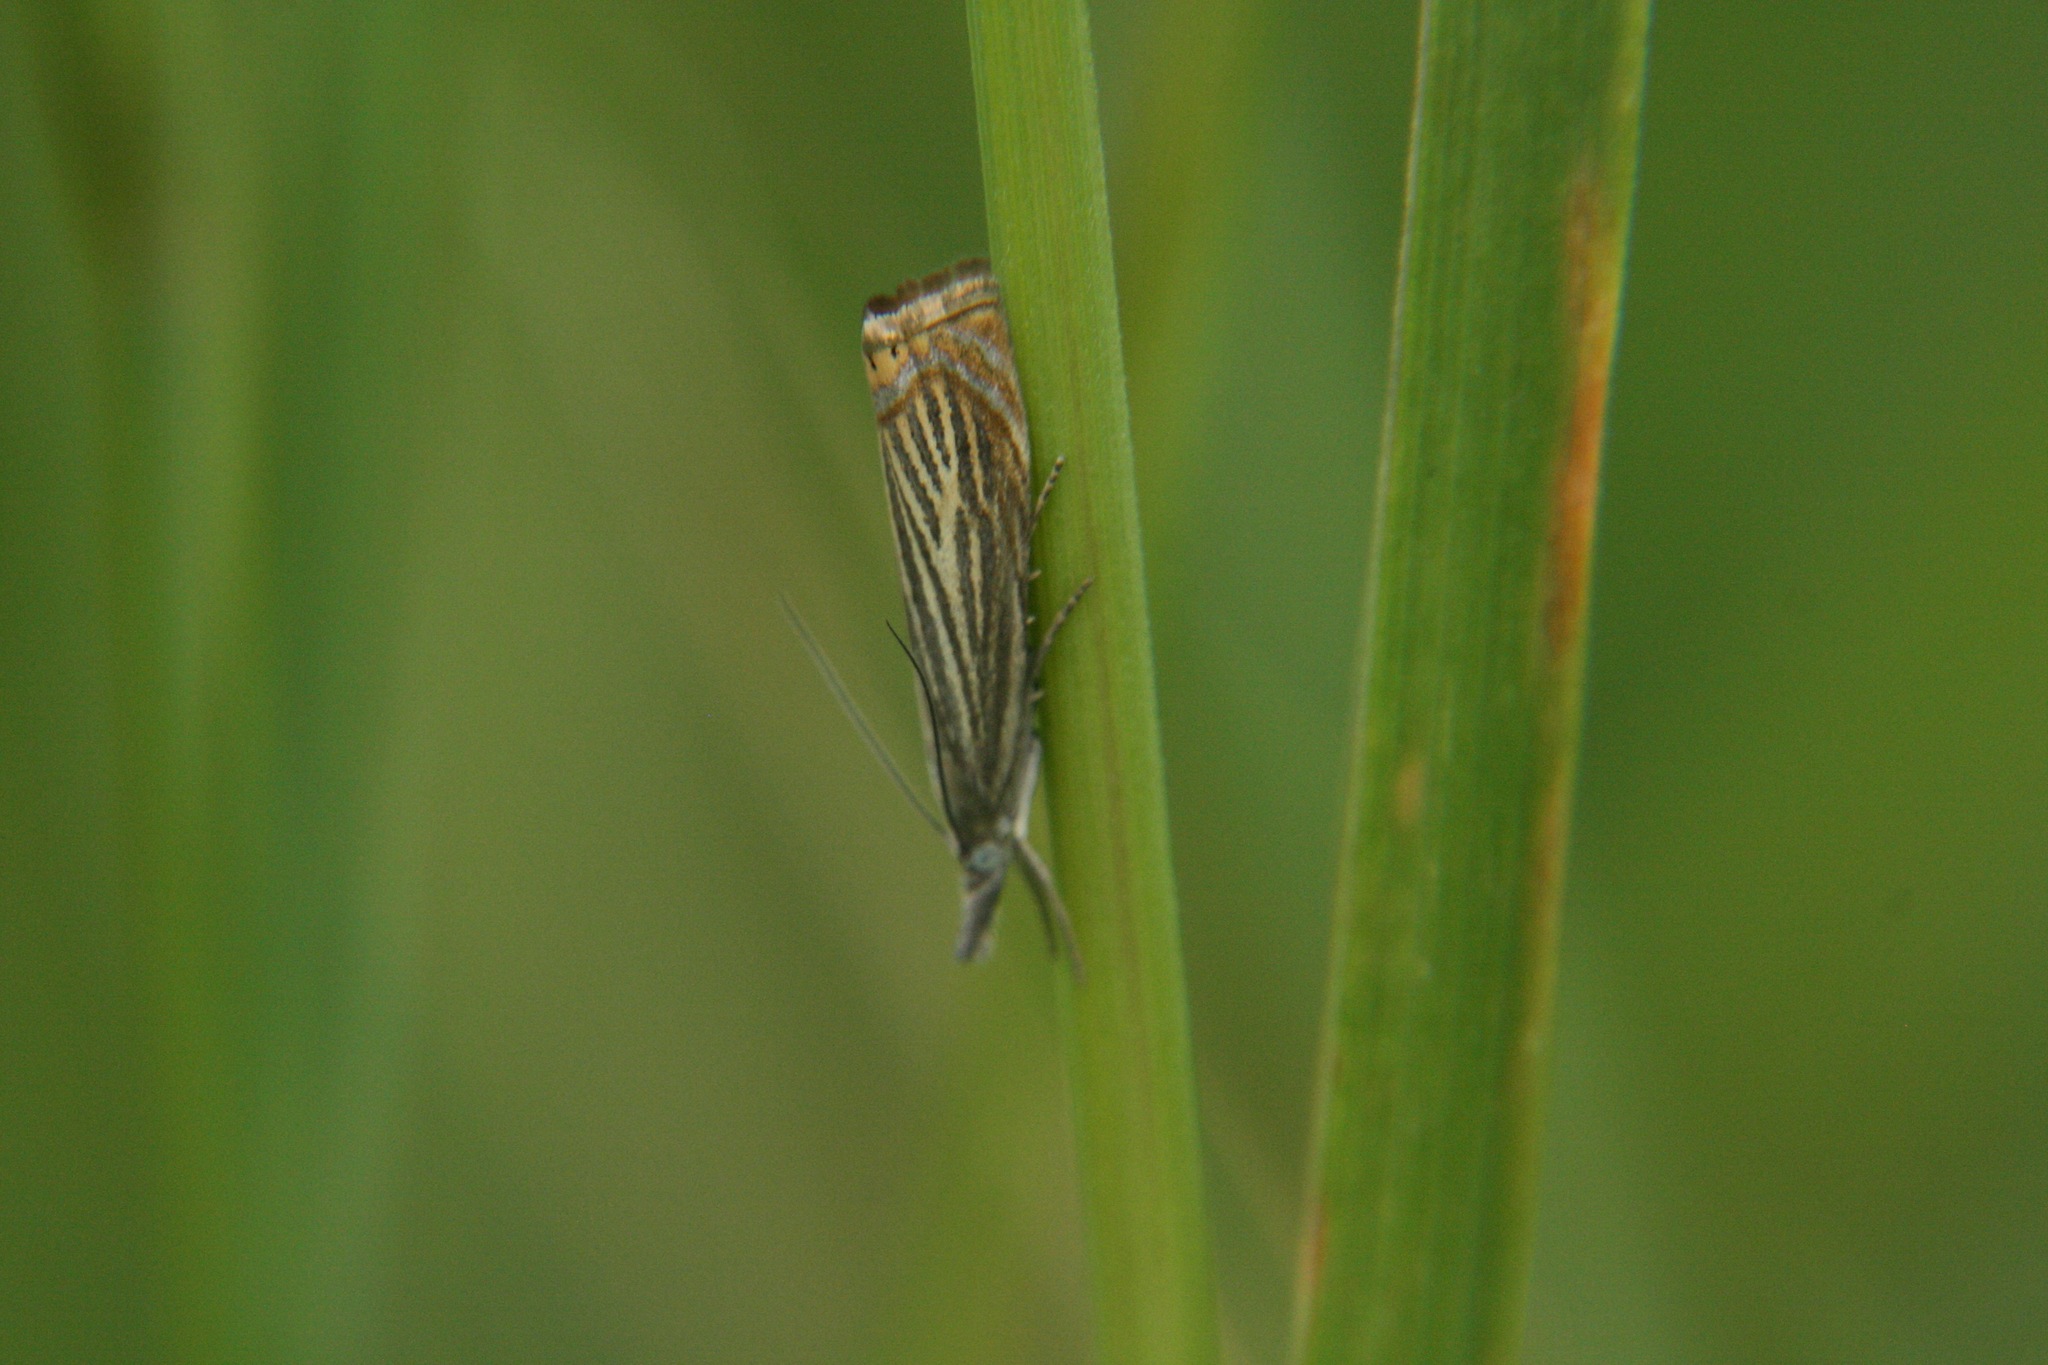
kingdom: Animalia
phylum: Arthropoda
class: Insecta
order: Lepidoptera
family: Crambidae
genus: Chrysoteuchia
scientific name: Chrysoteuchia culmella
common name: Garden grass-veneer
